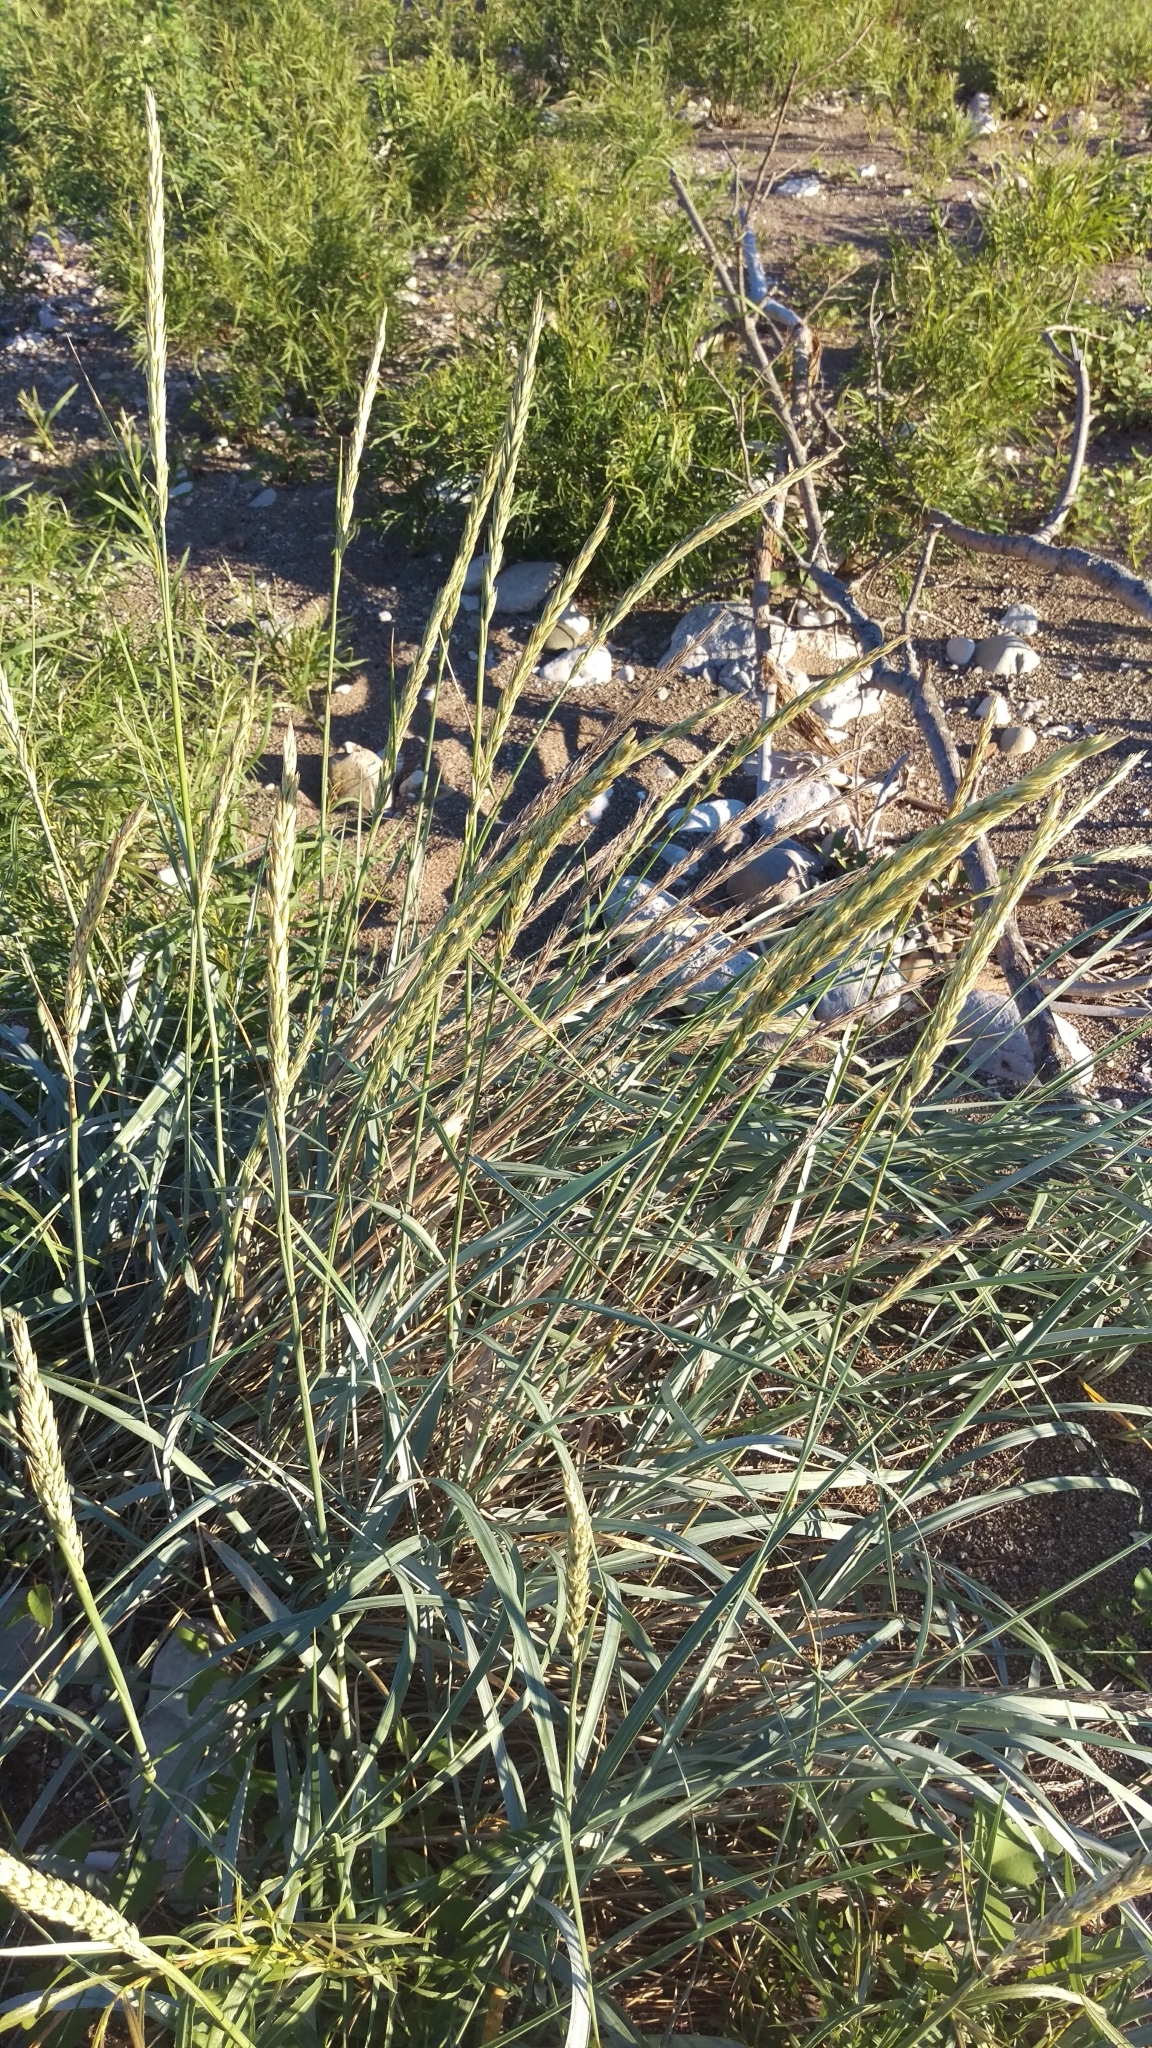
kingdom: Plantae
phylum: Tracheophyta
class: Liliopsida
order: Poales
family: Poaceae
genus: Leymus
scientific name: Leymus arenarius
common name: Lyme-grass
